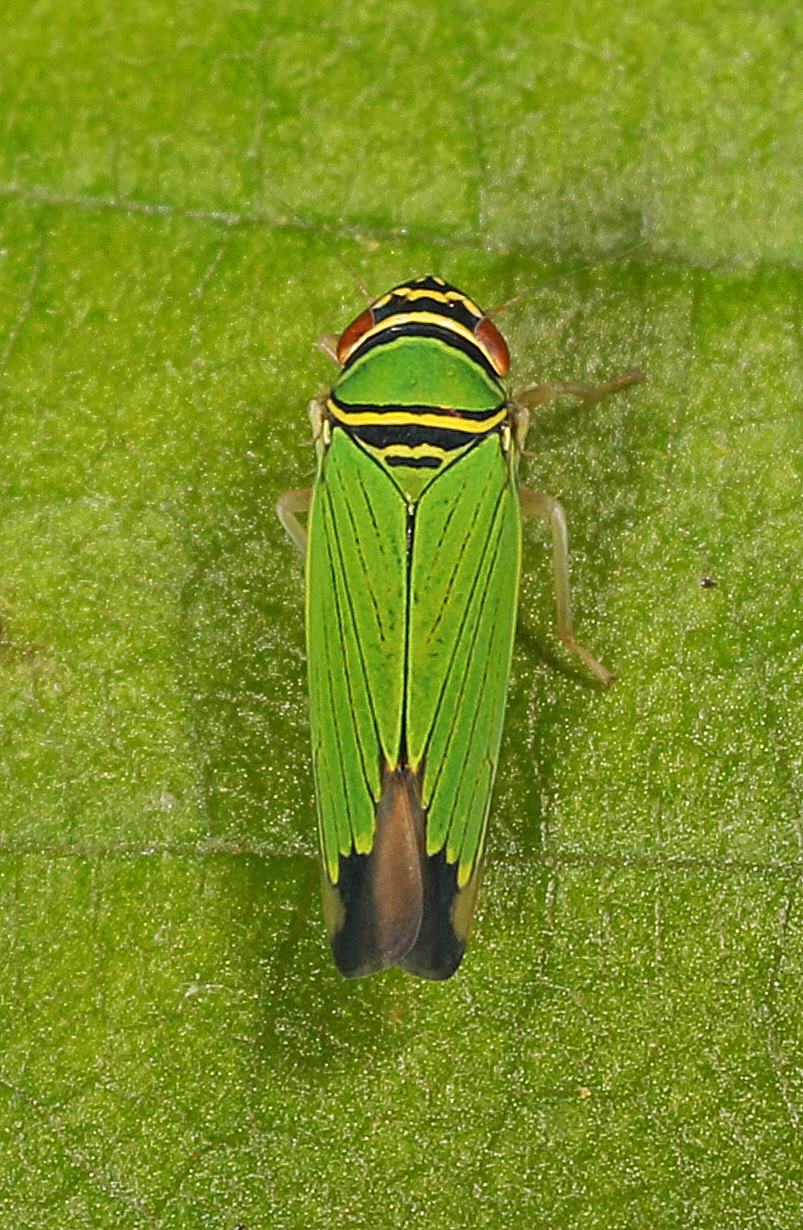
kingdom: Animalia
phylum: Arthropoda
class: Insecta
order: Hemiptera
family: Cicadellidae
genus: Tylozygus
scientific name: Tylozygus geometricus
